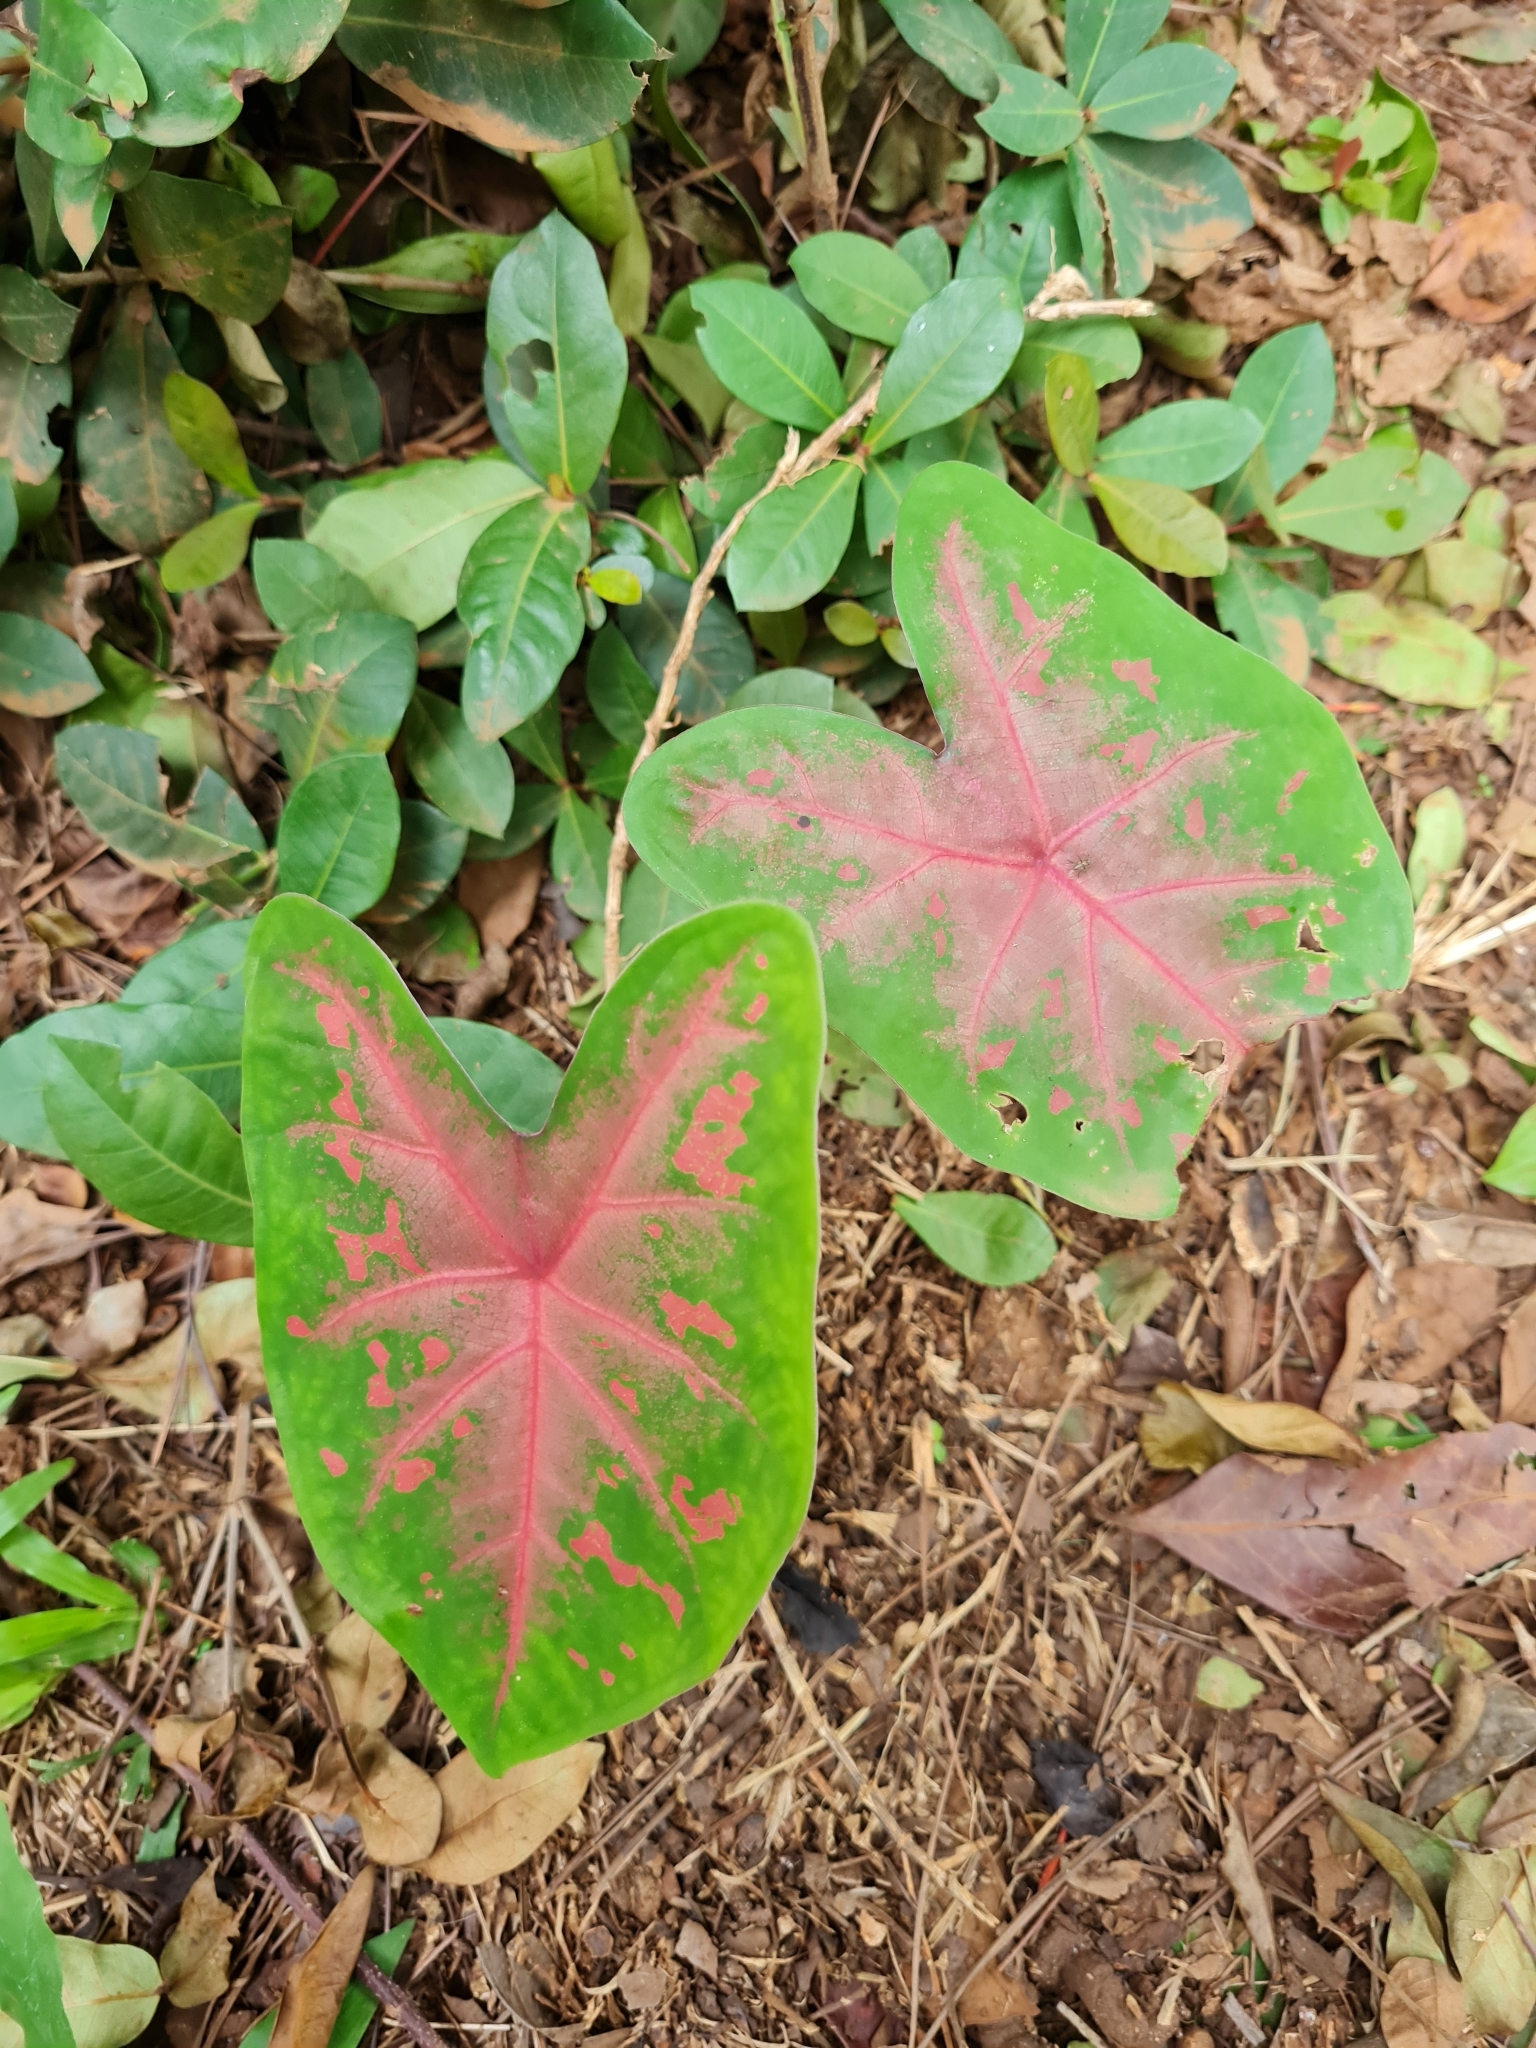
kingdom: Plantae
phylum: Tracheophyta
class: Liliopsida
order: Alismatales
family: Araceae
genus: Caladium
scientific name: Caladium bicolor
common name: Artist's pallet
